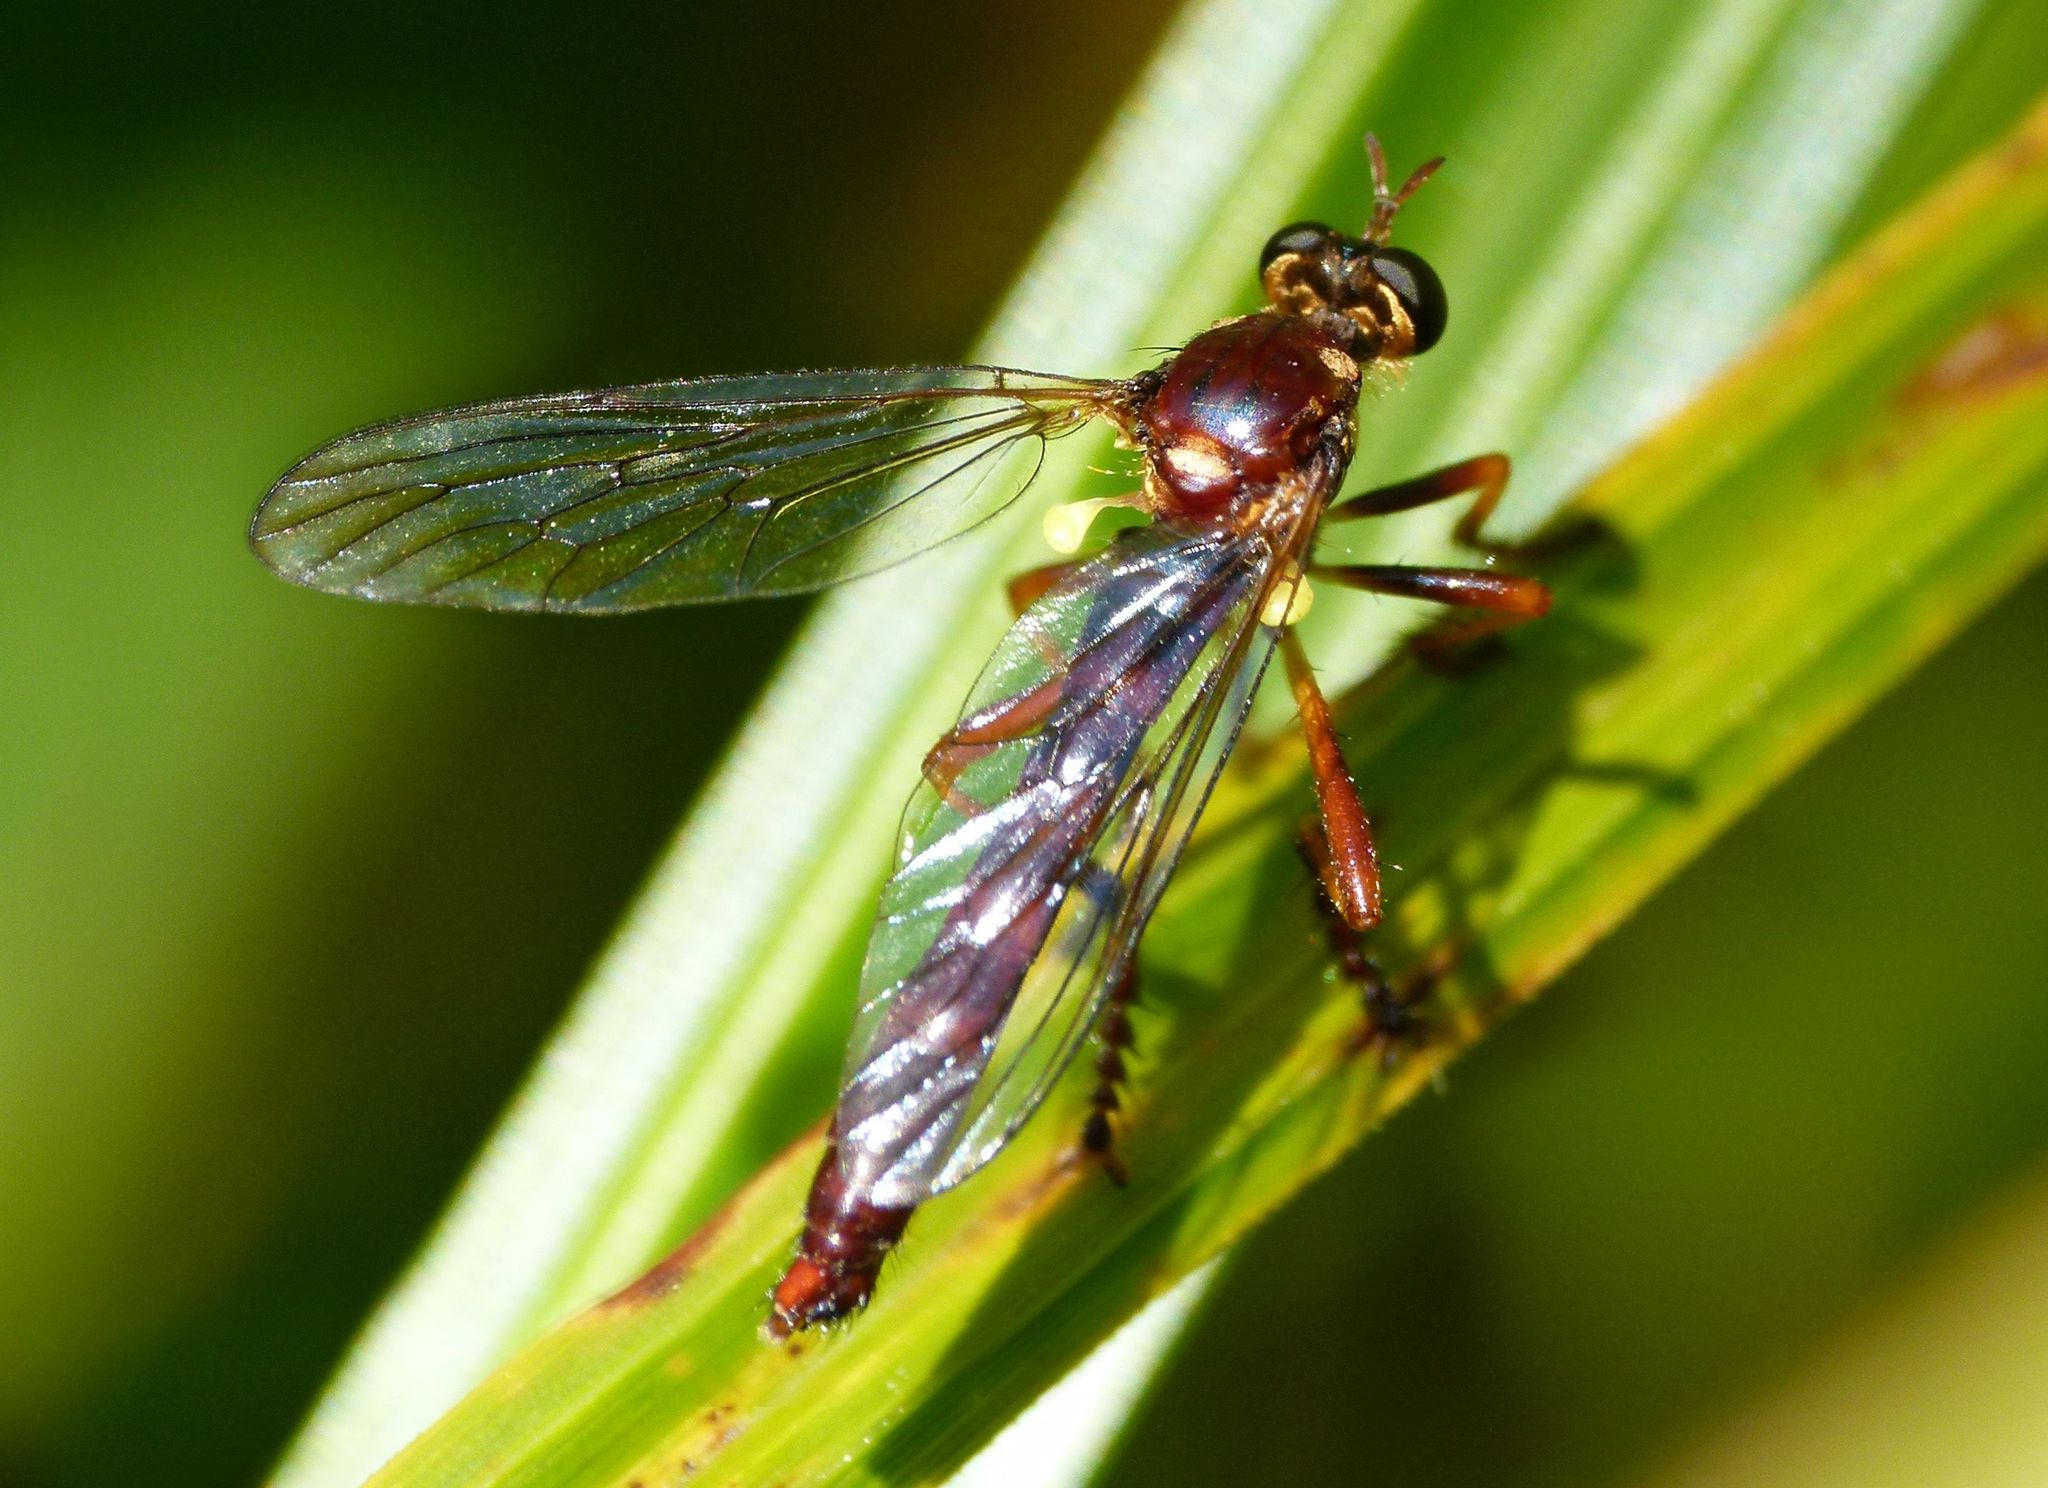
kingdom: Animalia
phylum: Arthropoda
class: Insecta
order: Diptera
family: Asilidae
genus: Saropogon
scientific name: Saropogon antipodus
